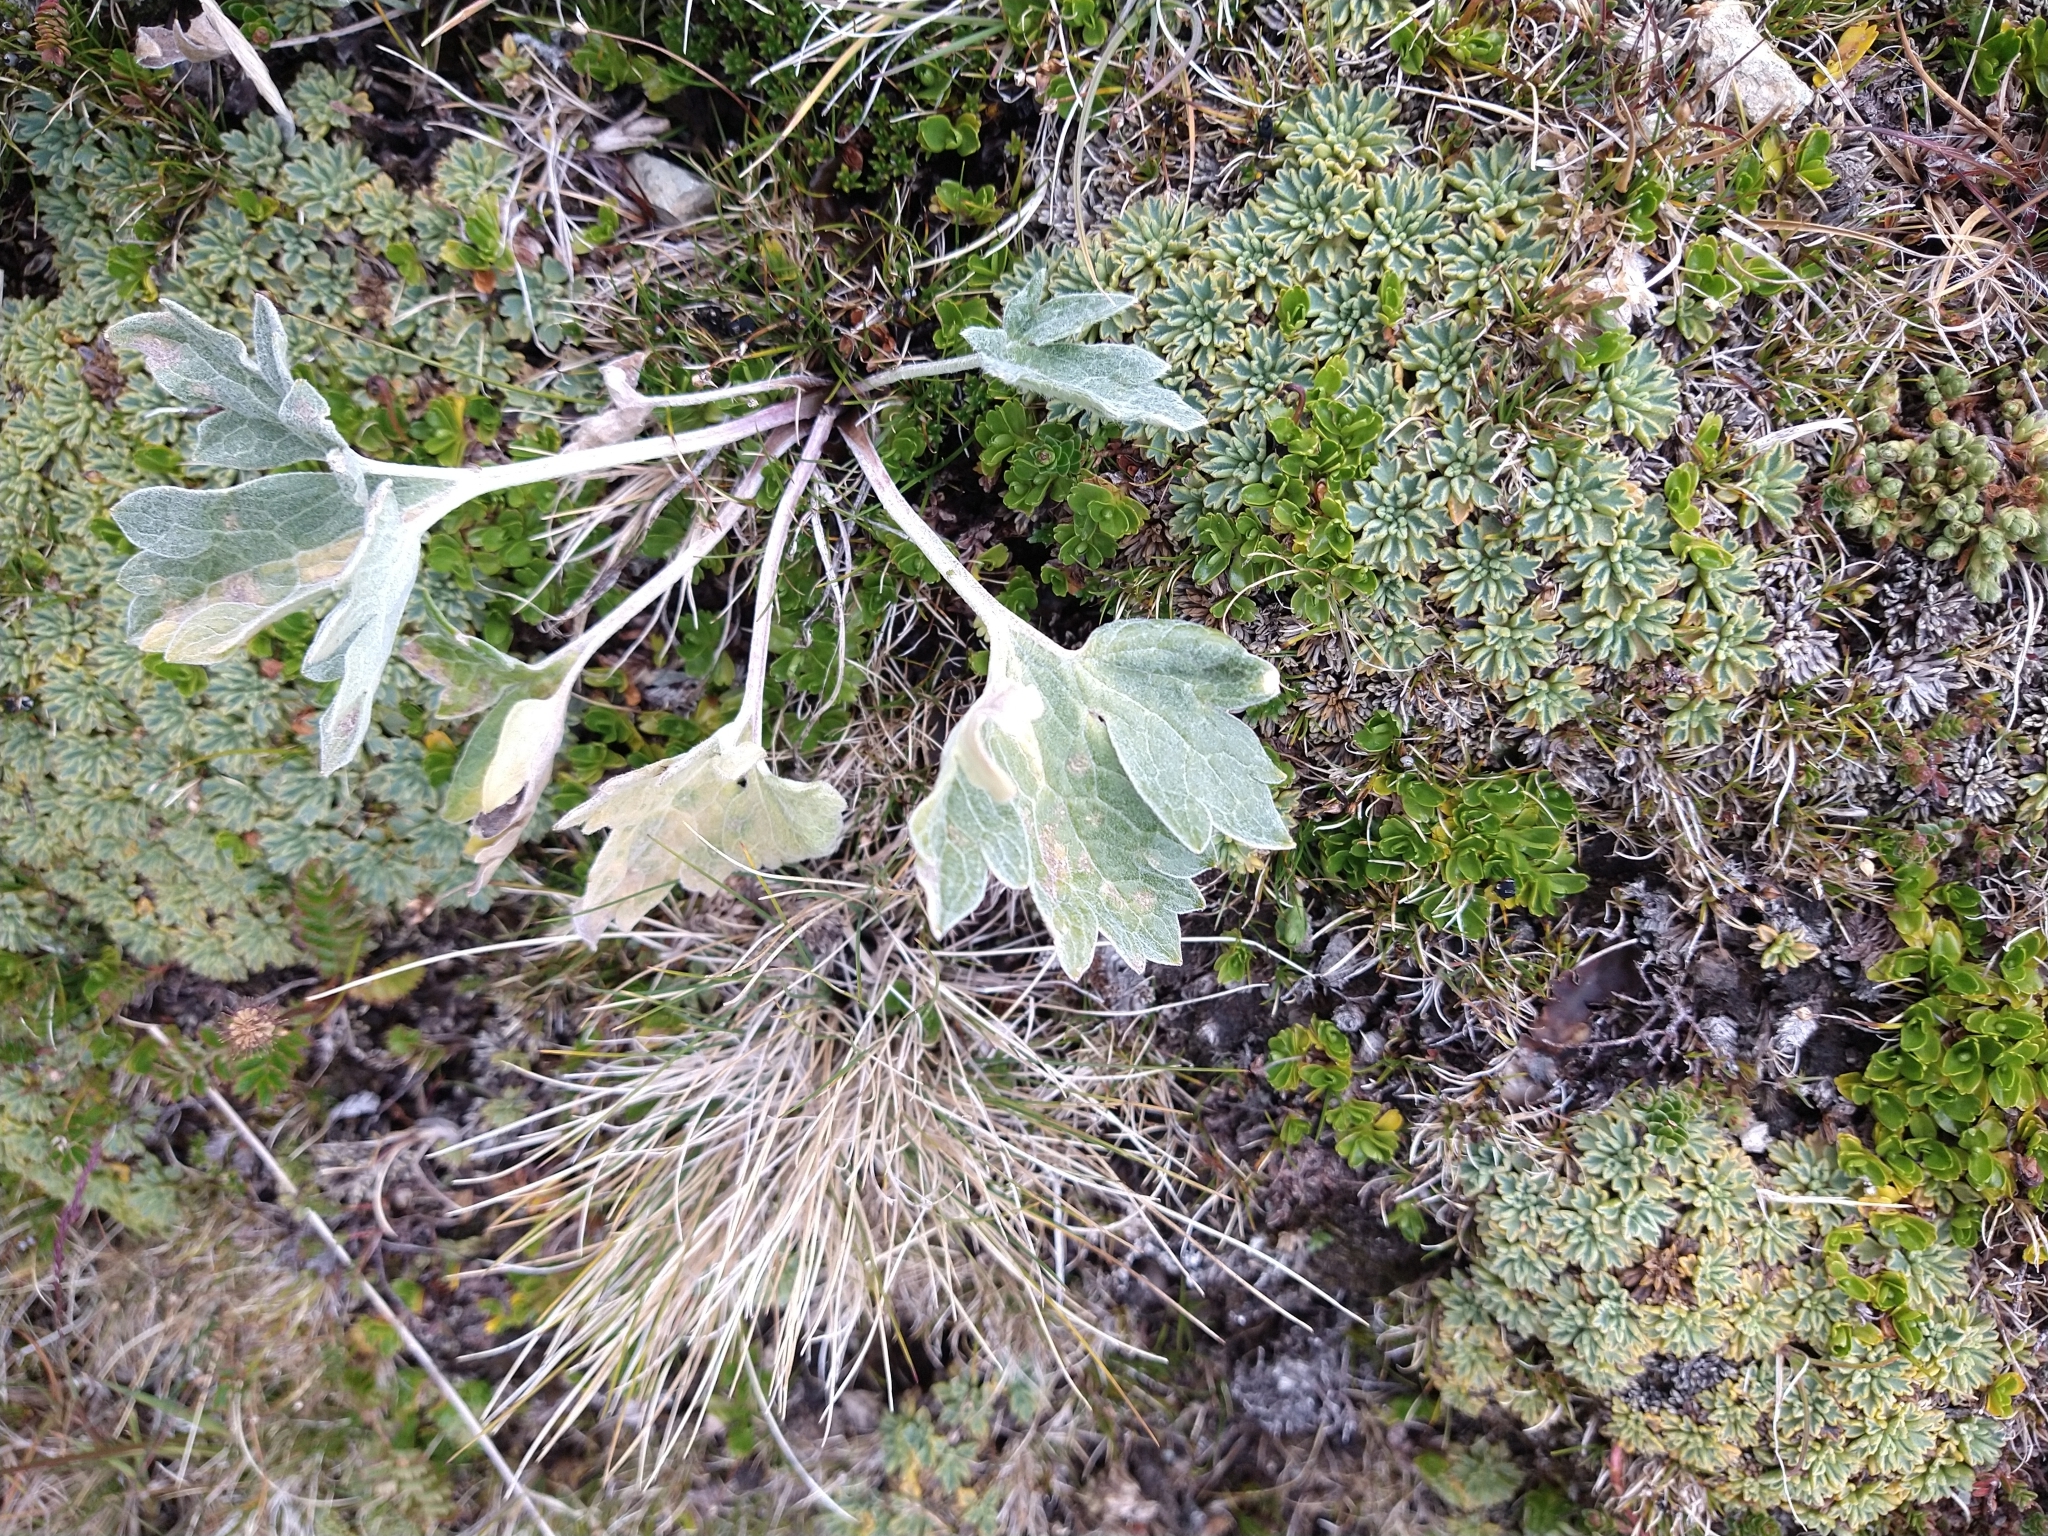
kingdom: Plantae
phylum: Tracheophyta
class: Magnoliopsida
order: Malpighiales
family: Violaceae
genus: Viola
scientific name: Viola tridentata
